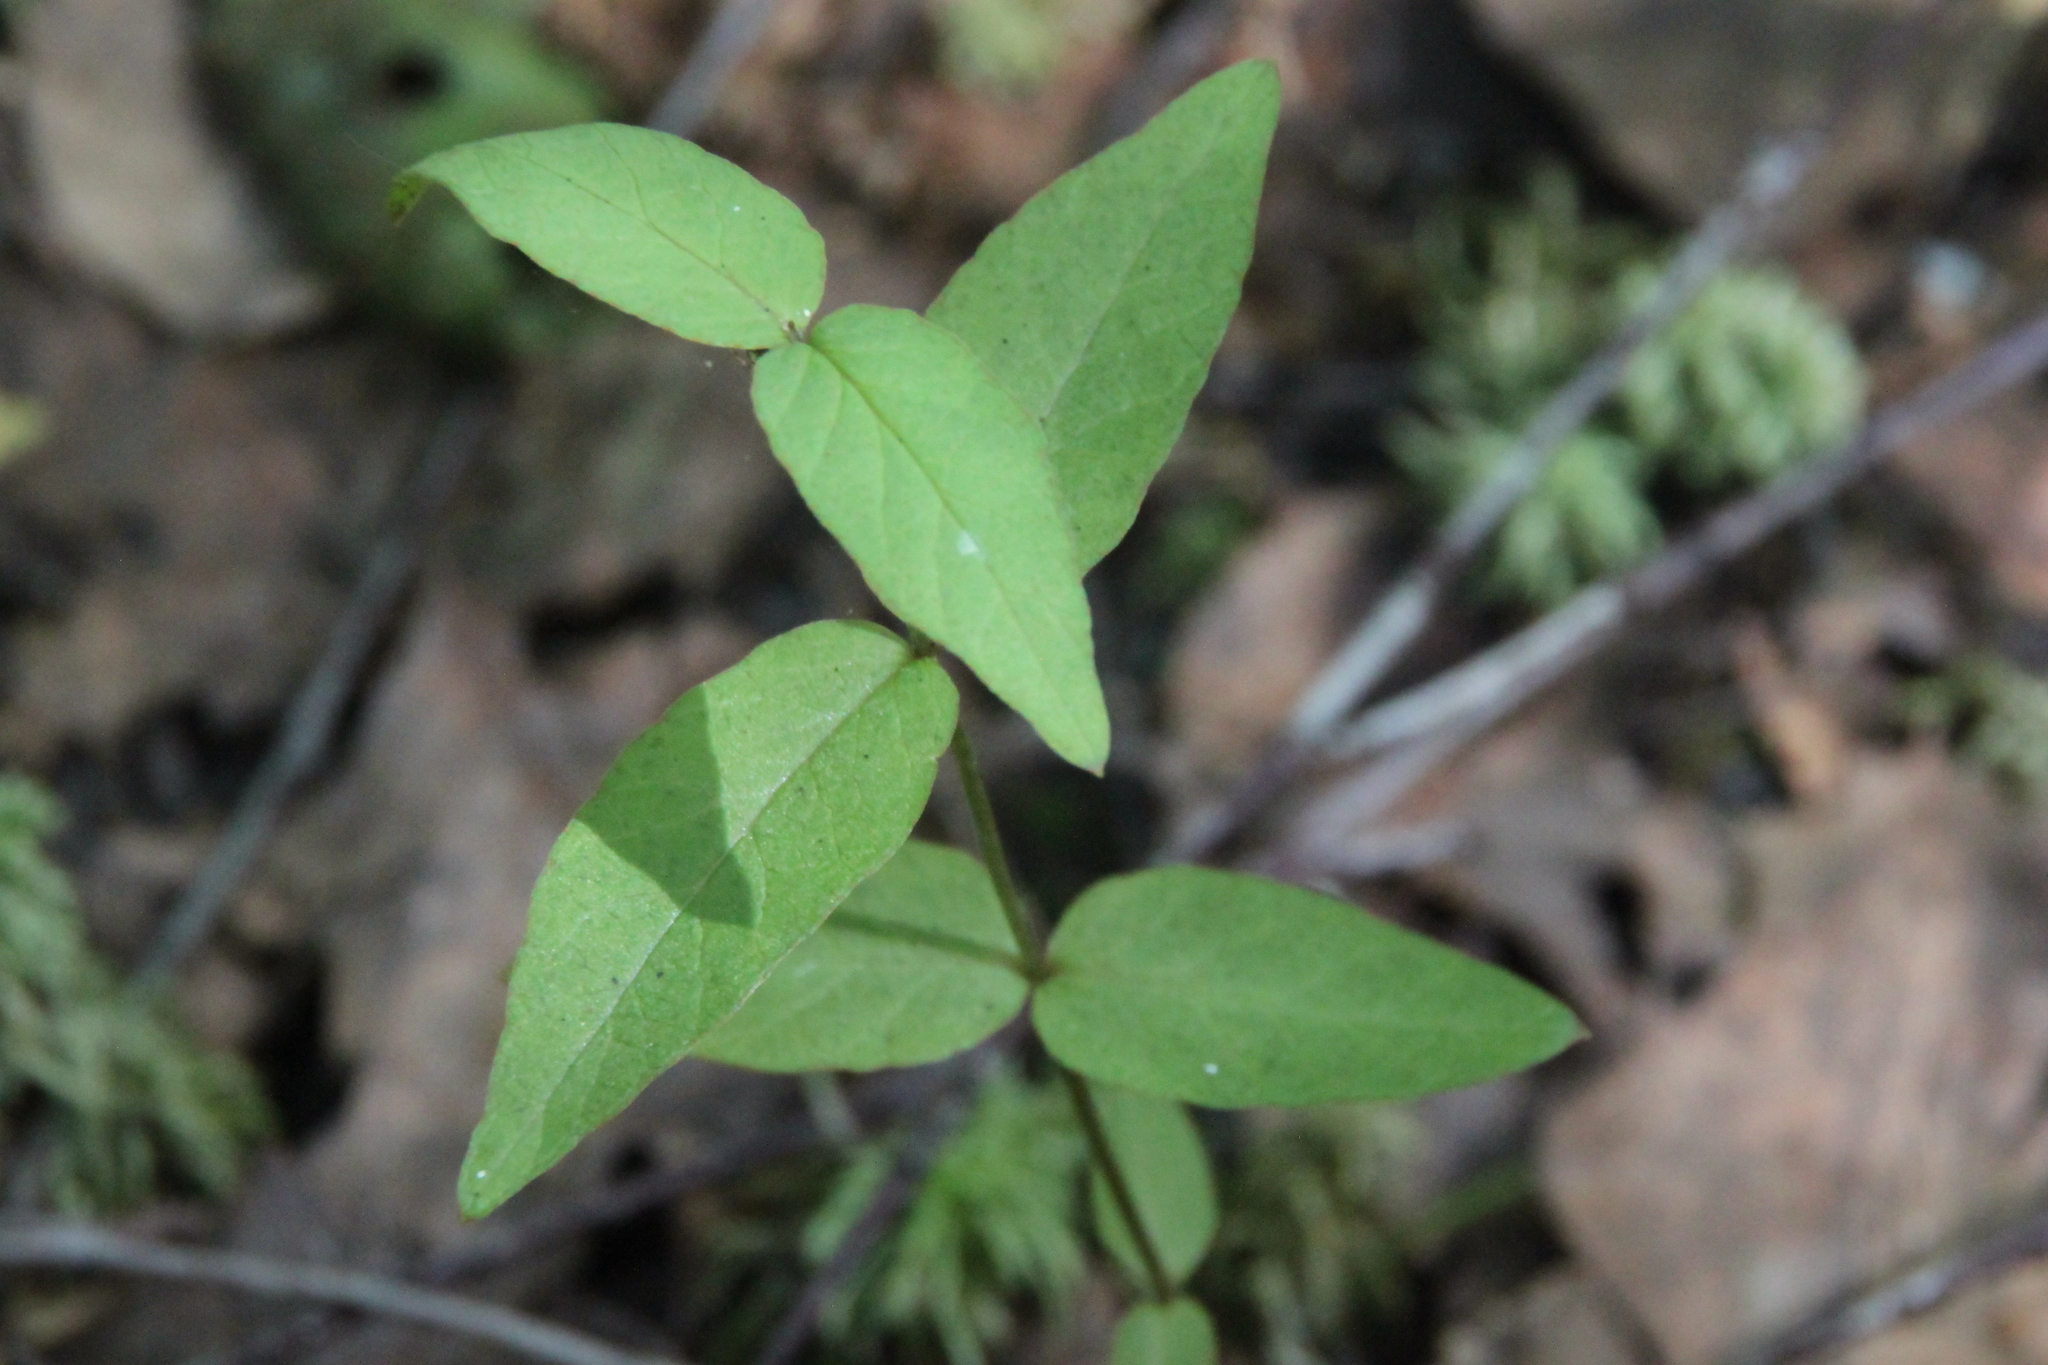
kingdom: Plantae
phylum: Tracheophyta
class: Magnoliopsida
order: Ericales
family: Primulaceae
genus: Lysimachia
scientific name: Lysimachia vulgaris
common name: Yellow loosestrife
